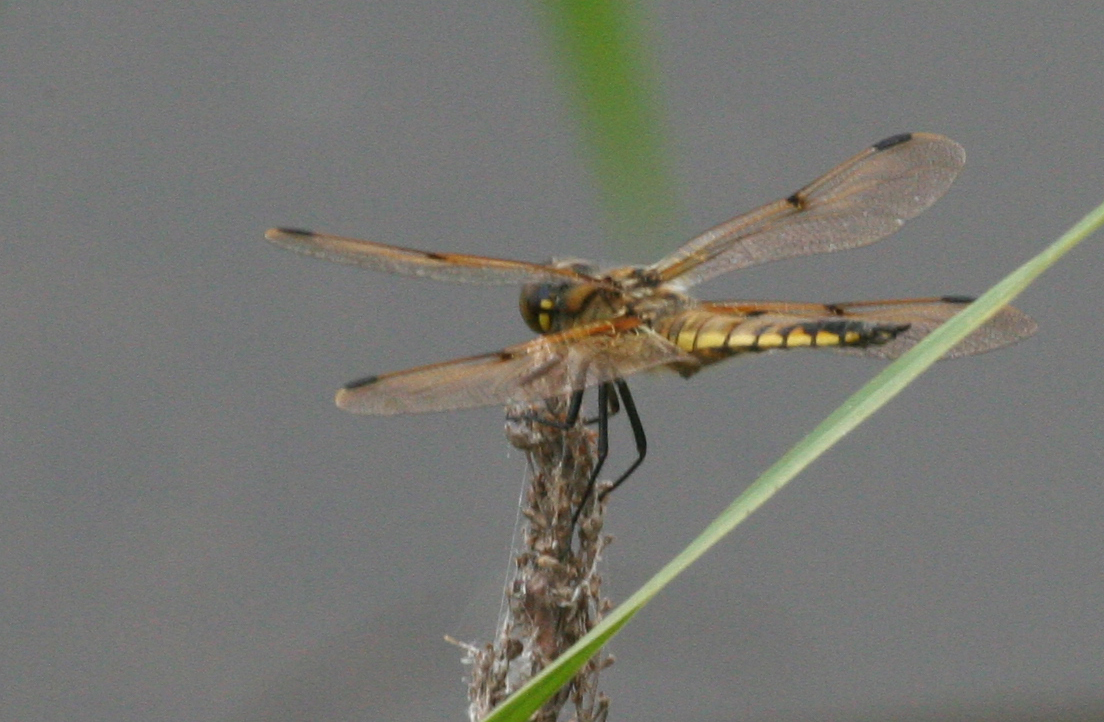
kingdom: Animalia
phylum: Arthropoda
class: Insecta
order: Odonata
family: Libellulidae
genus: Libellula
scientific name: Libellula quadrimaculata
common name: Four-spotted chaser
